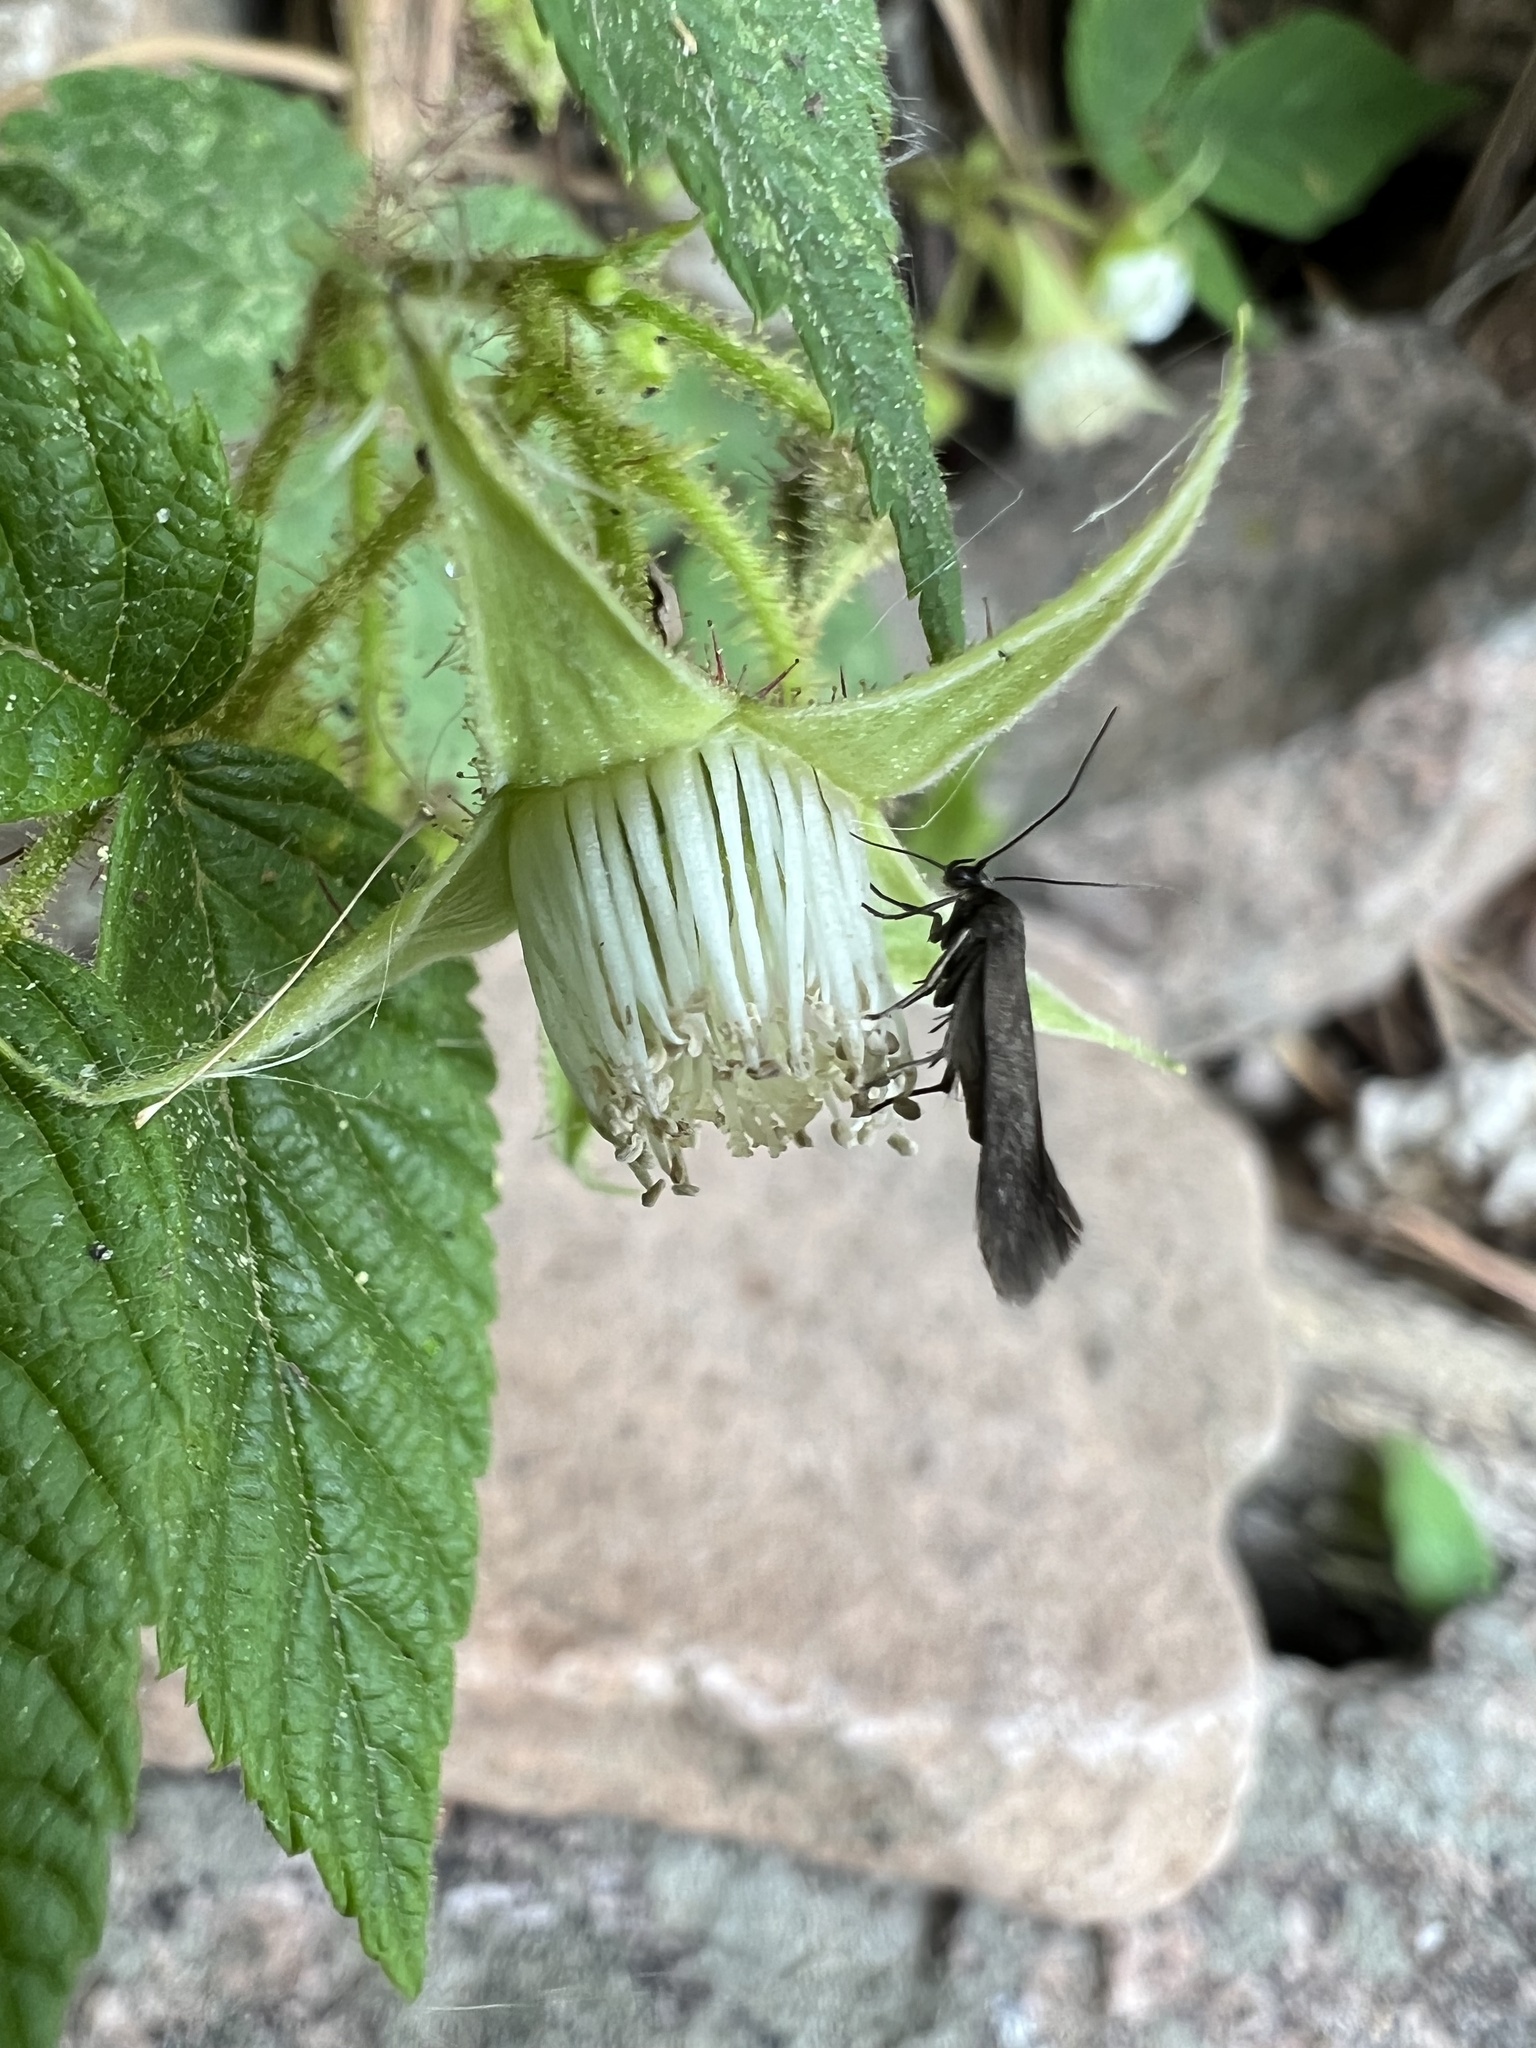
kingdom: Plantae
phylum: Tracheophyta
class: Magnoliopsida
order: Rosales
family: Rosaceae
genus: Rubus
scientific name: Rubus idaeus
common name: Raspberry
